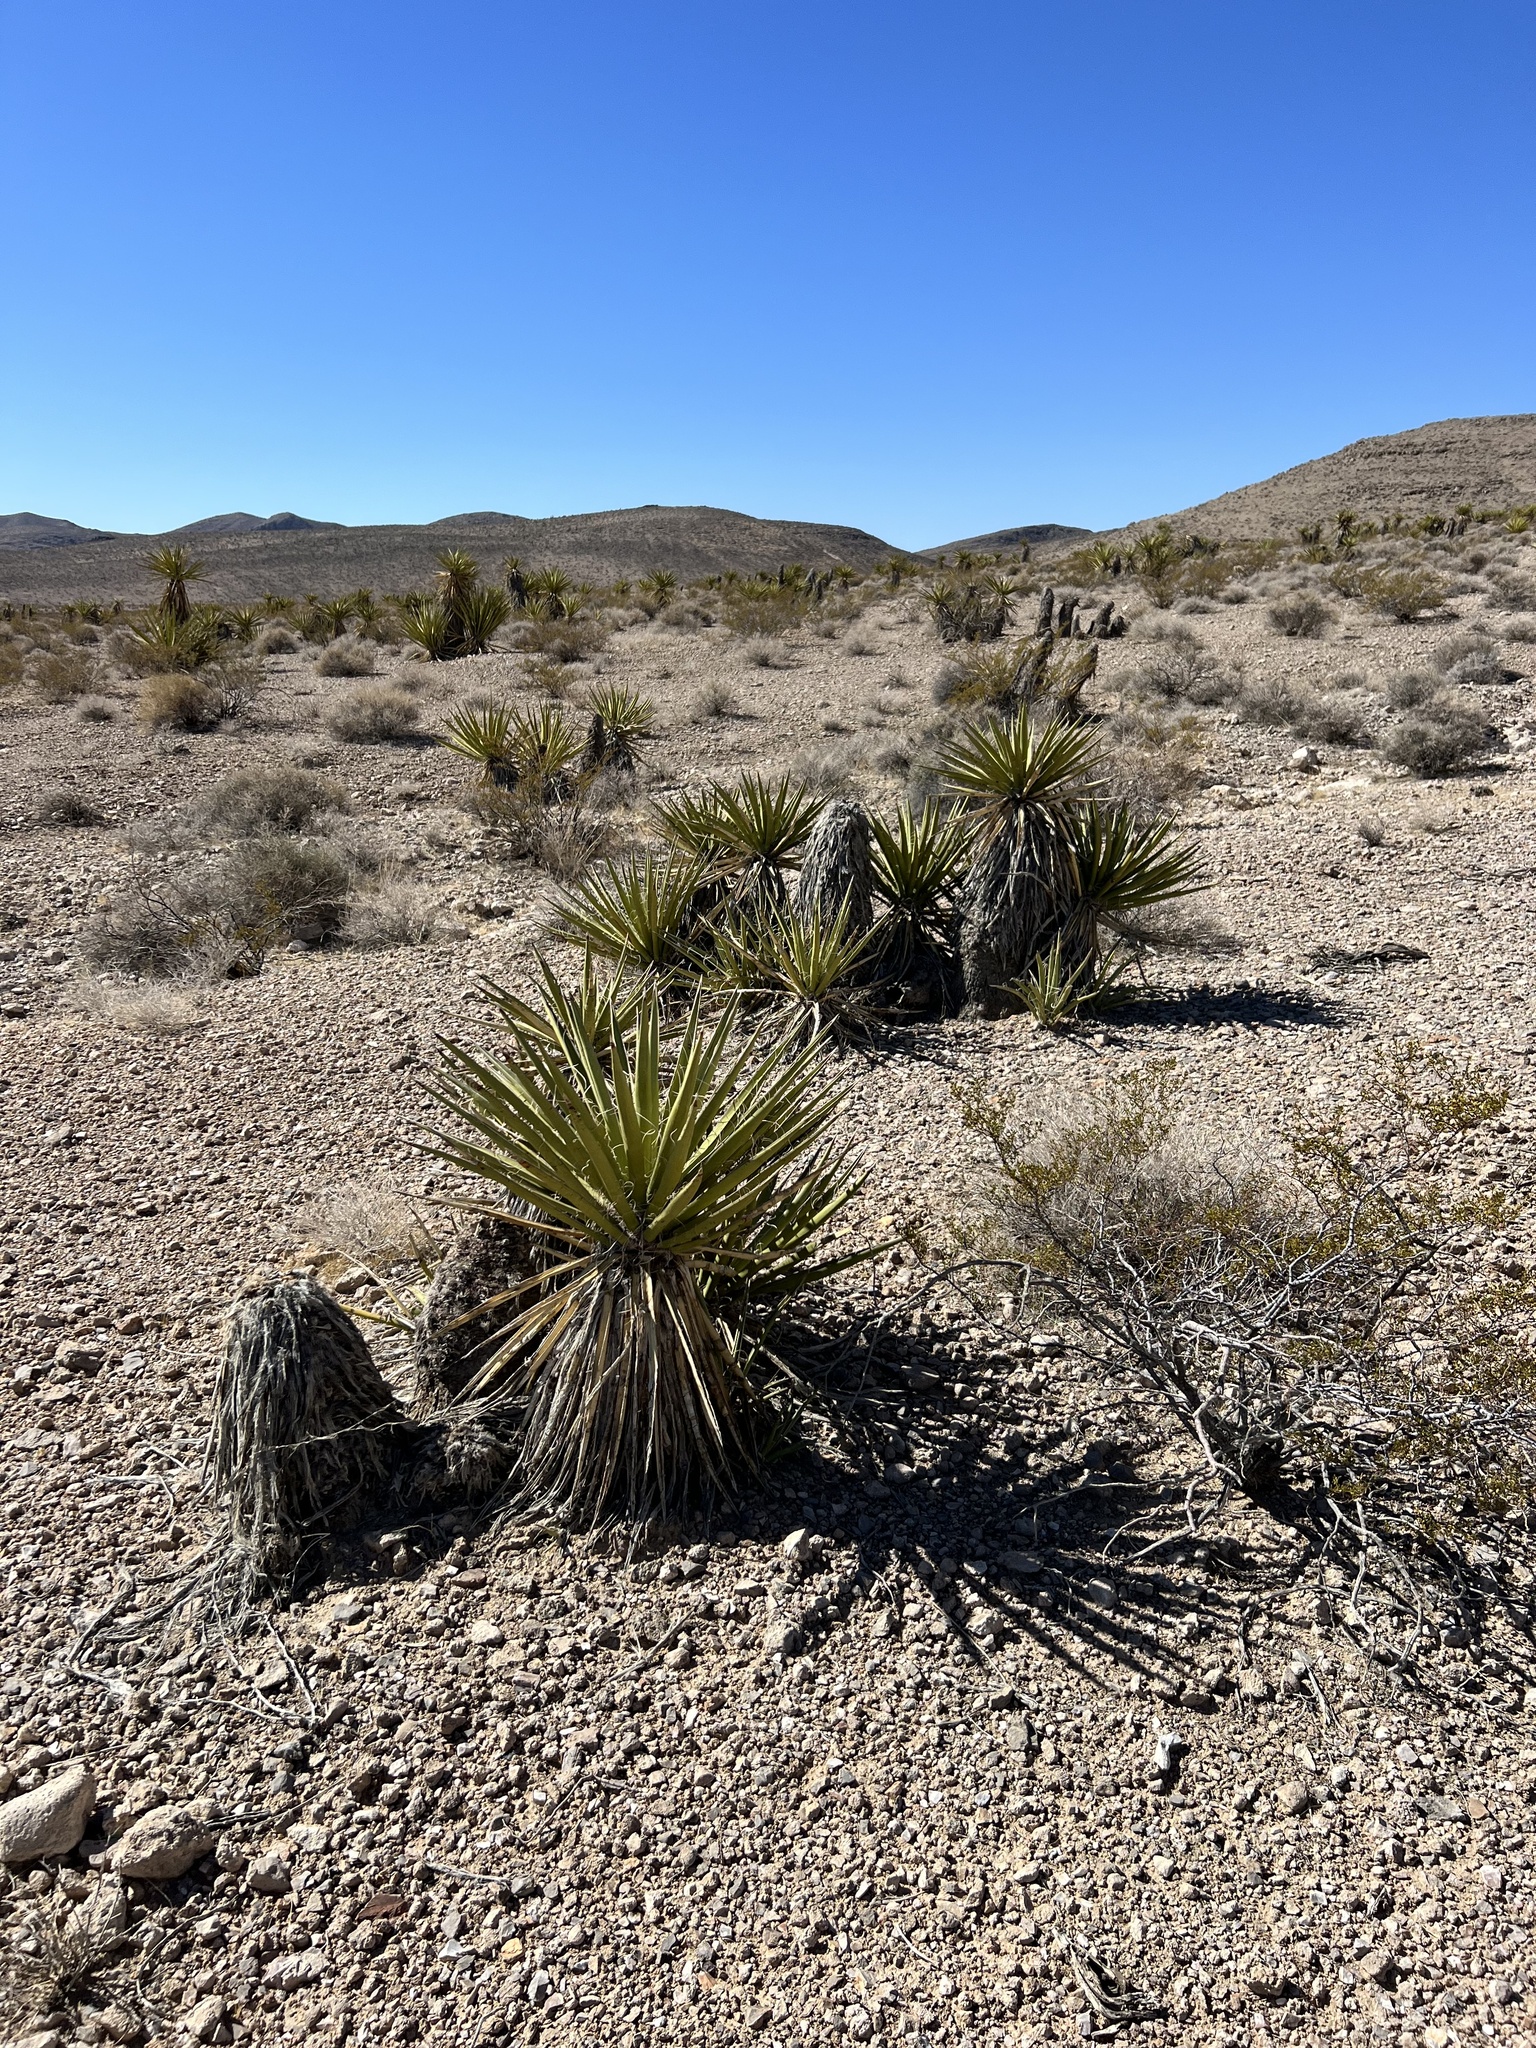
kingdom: Plantae
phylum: Tracheophyta
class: Liliopsida
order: Asparagales
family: Asparagaceae
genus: Yucca
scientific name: Yucca schidigera
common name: Mojave yucca
